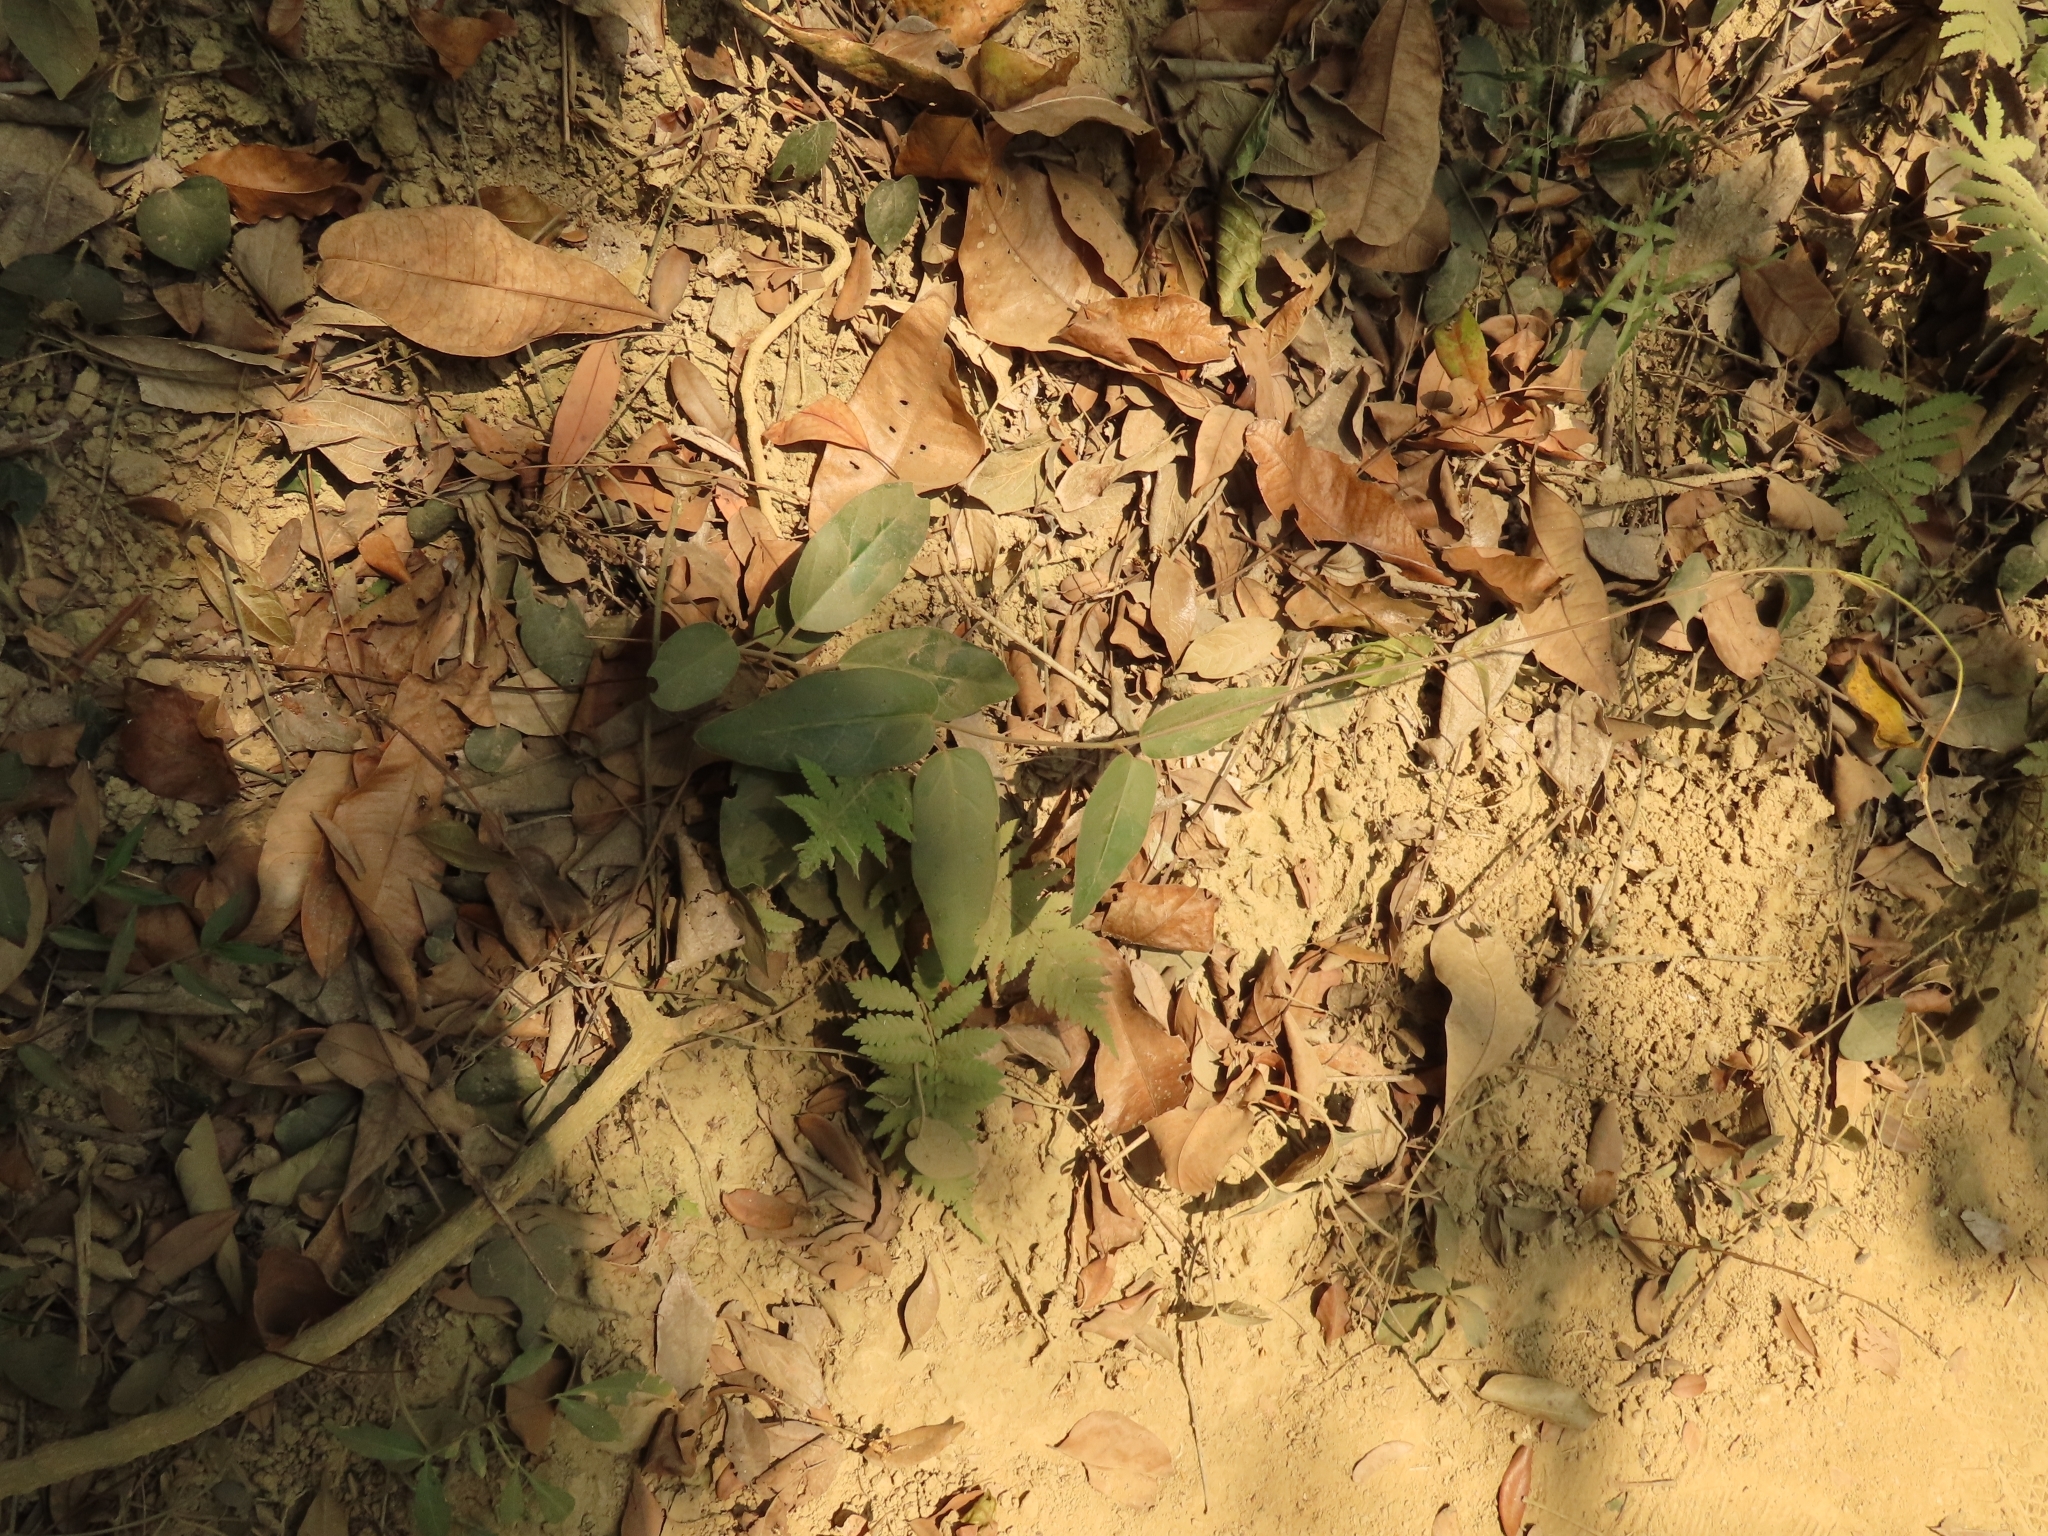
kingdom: Plantae
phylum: Tracheophyta
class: Magnoliopsida
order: Gentianales
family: Apocynaceae
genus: Vincetoxicum
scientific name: Vincetoxicum hirsutum
